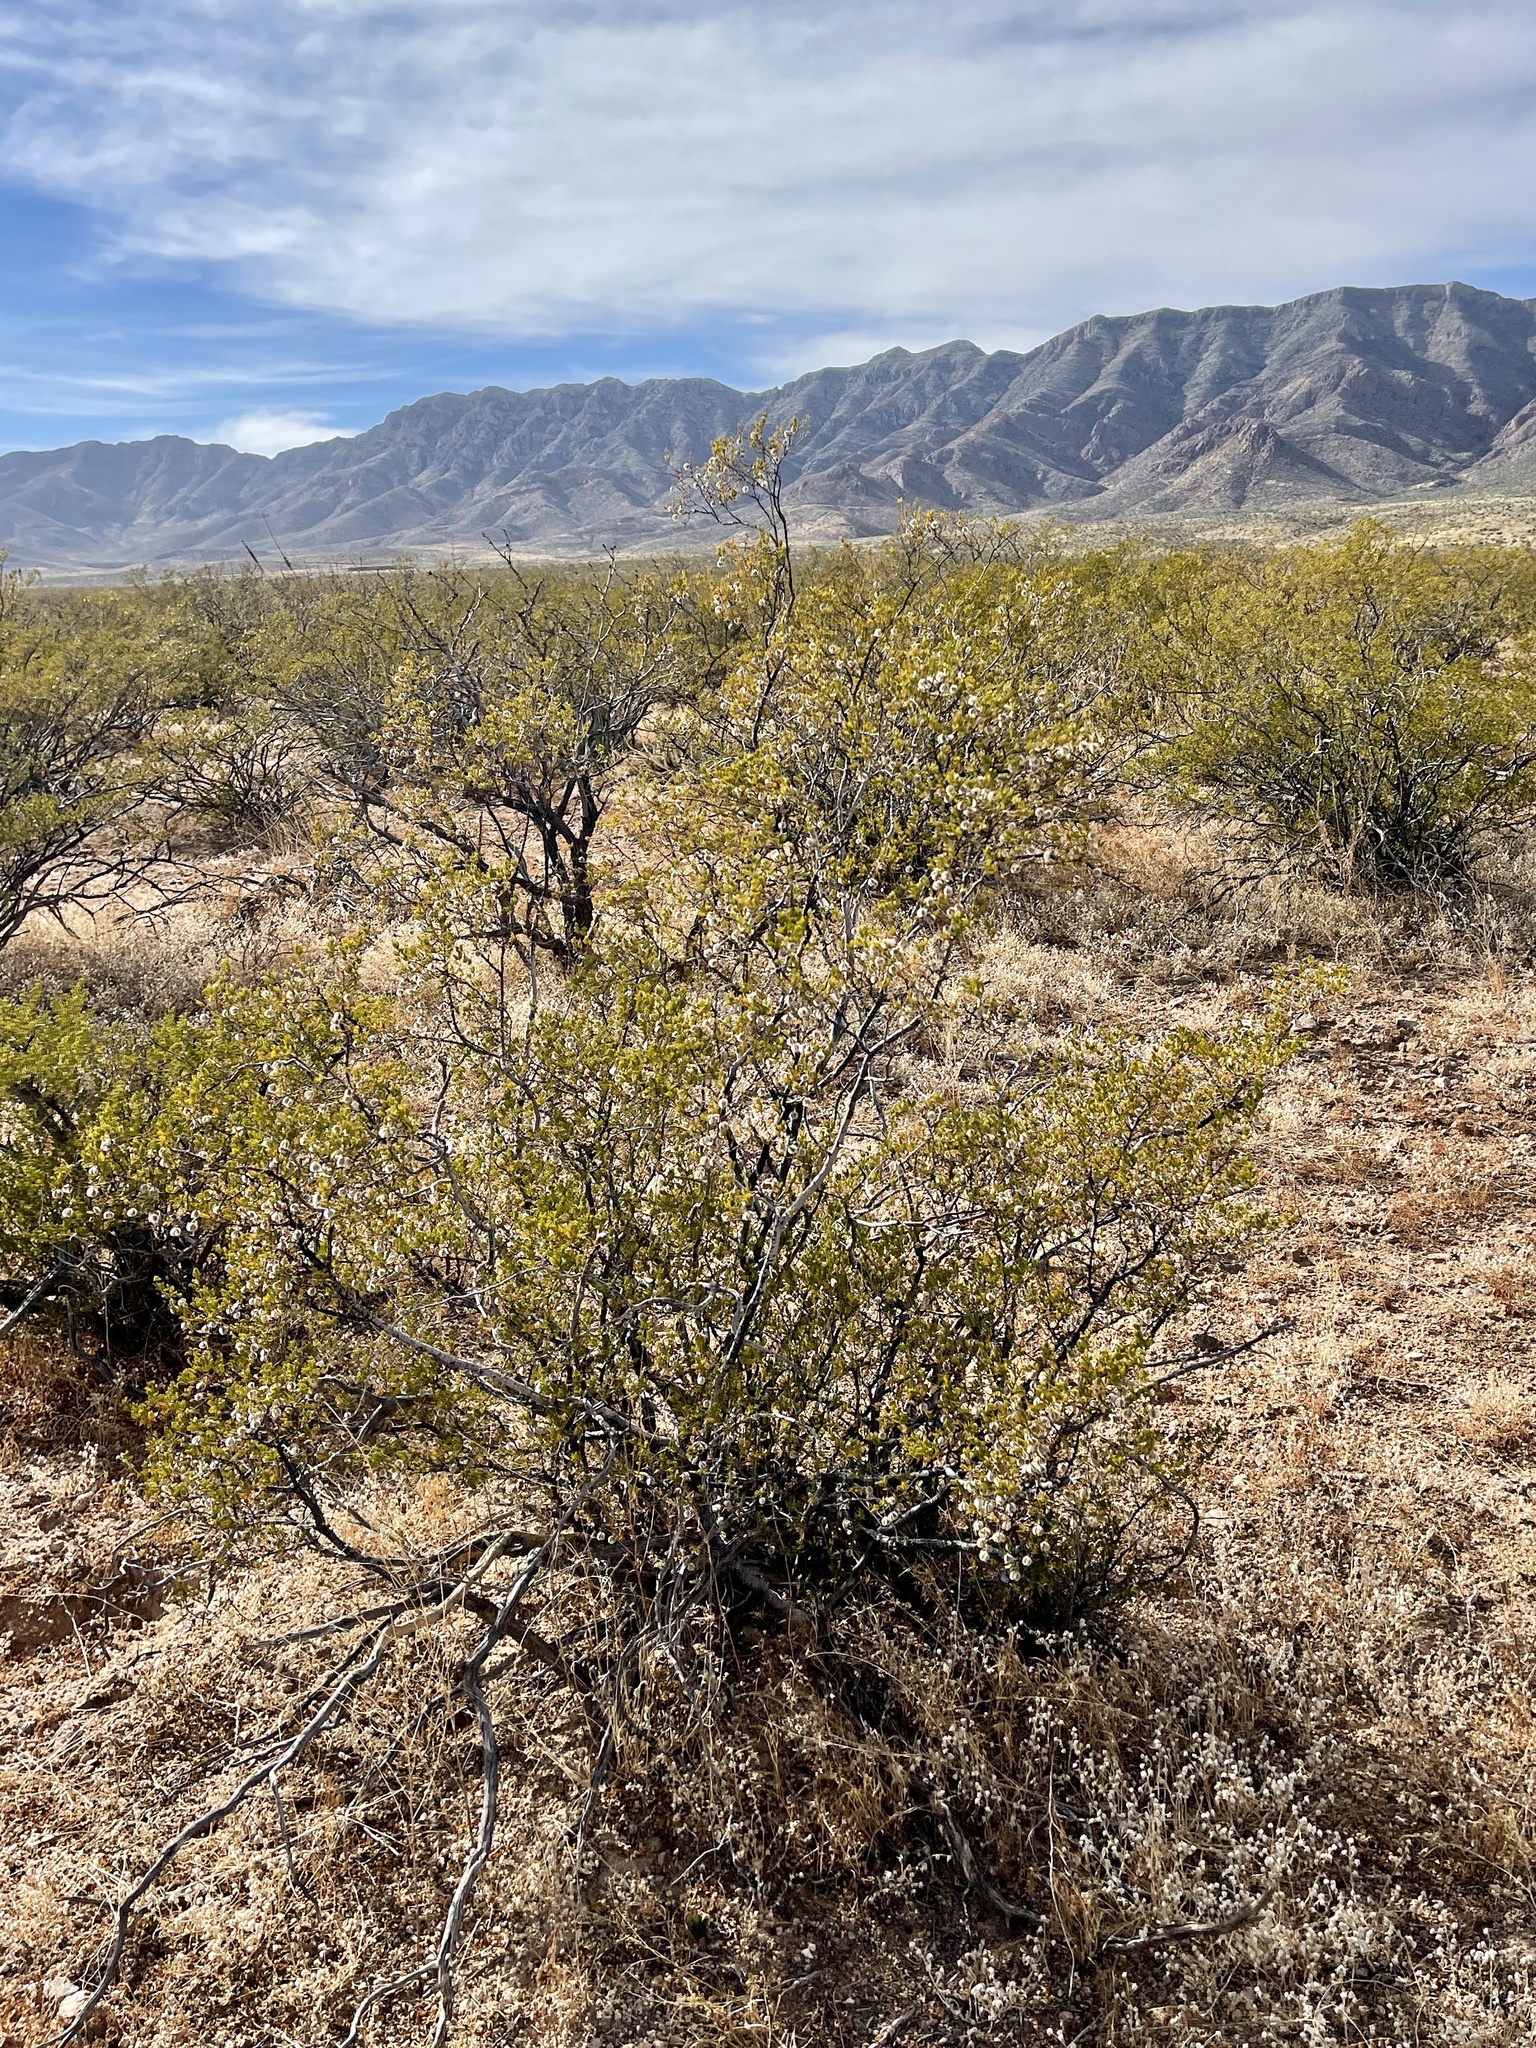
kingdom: Plantae
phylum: Tracheophyta
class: Magnoliopsida
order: Zygophyllales
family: Zygophyllaceae
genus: Larrea
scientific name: Larrea tridentata
